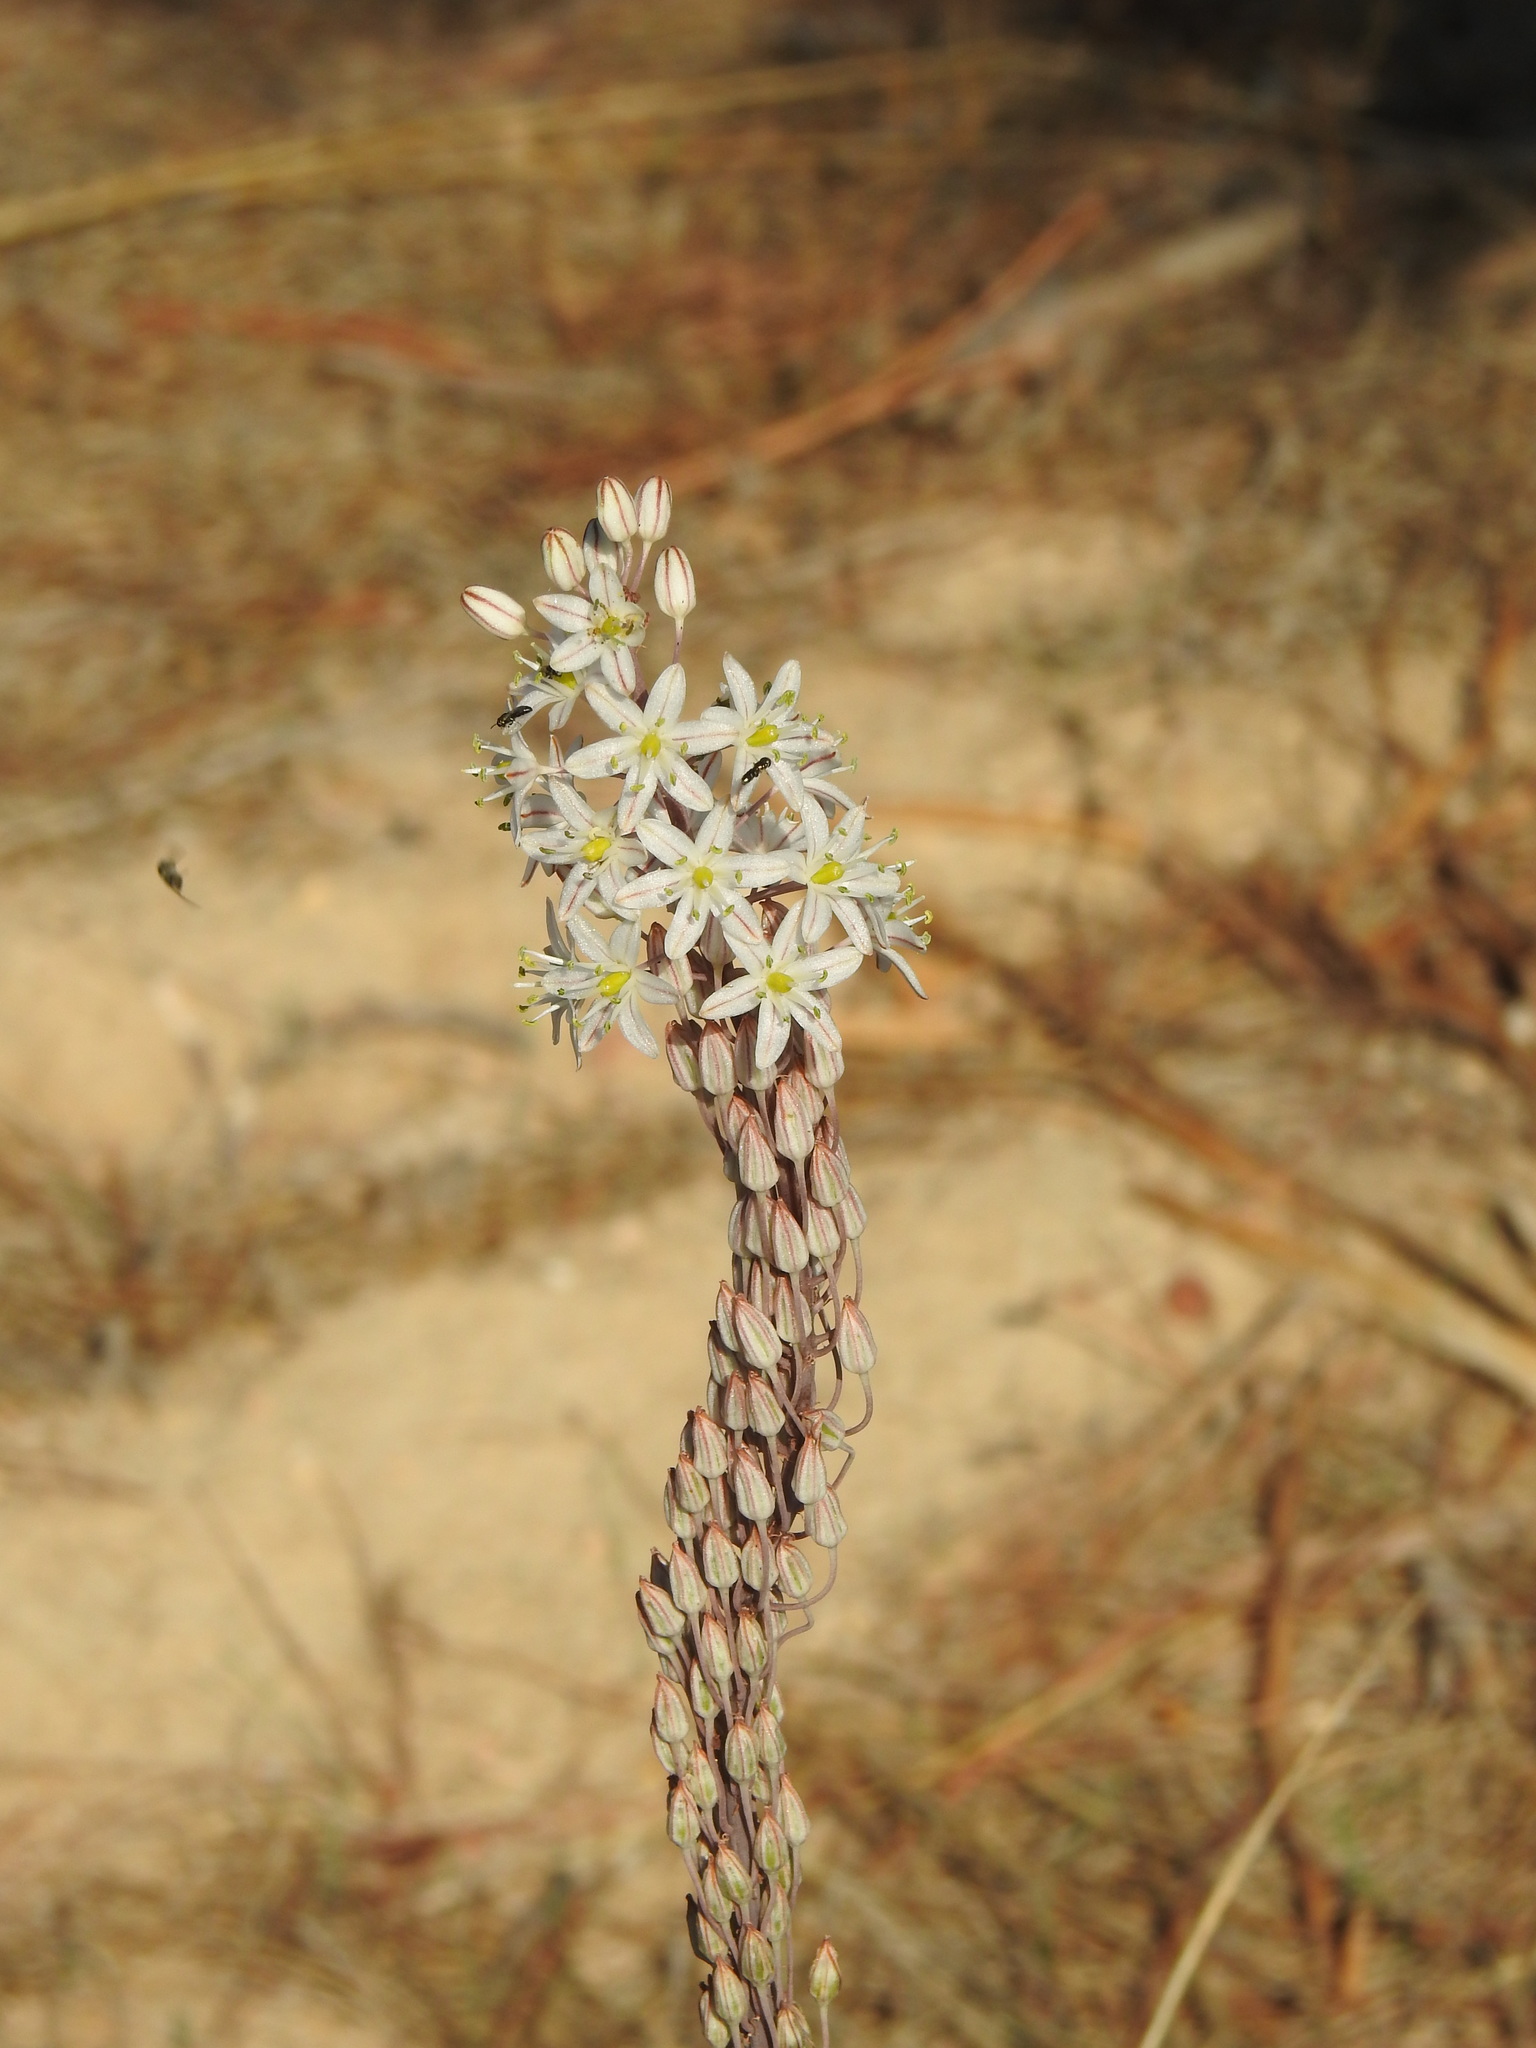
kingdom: Plantae
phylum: Tracheophyta
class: Liliopsida
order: Asparagales
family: Asparagaceae
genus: Drimia
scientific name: Drimia maritima
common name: Maritime squill
